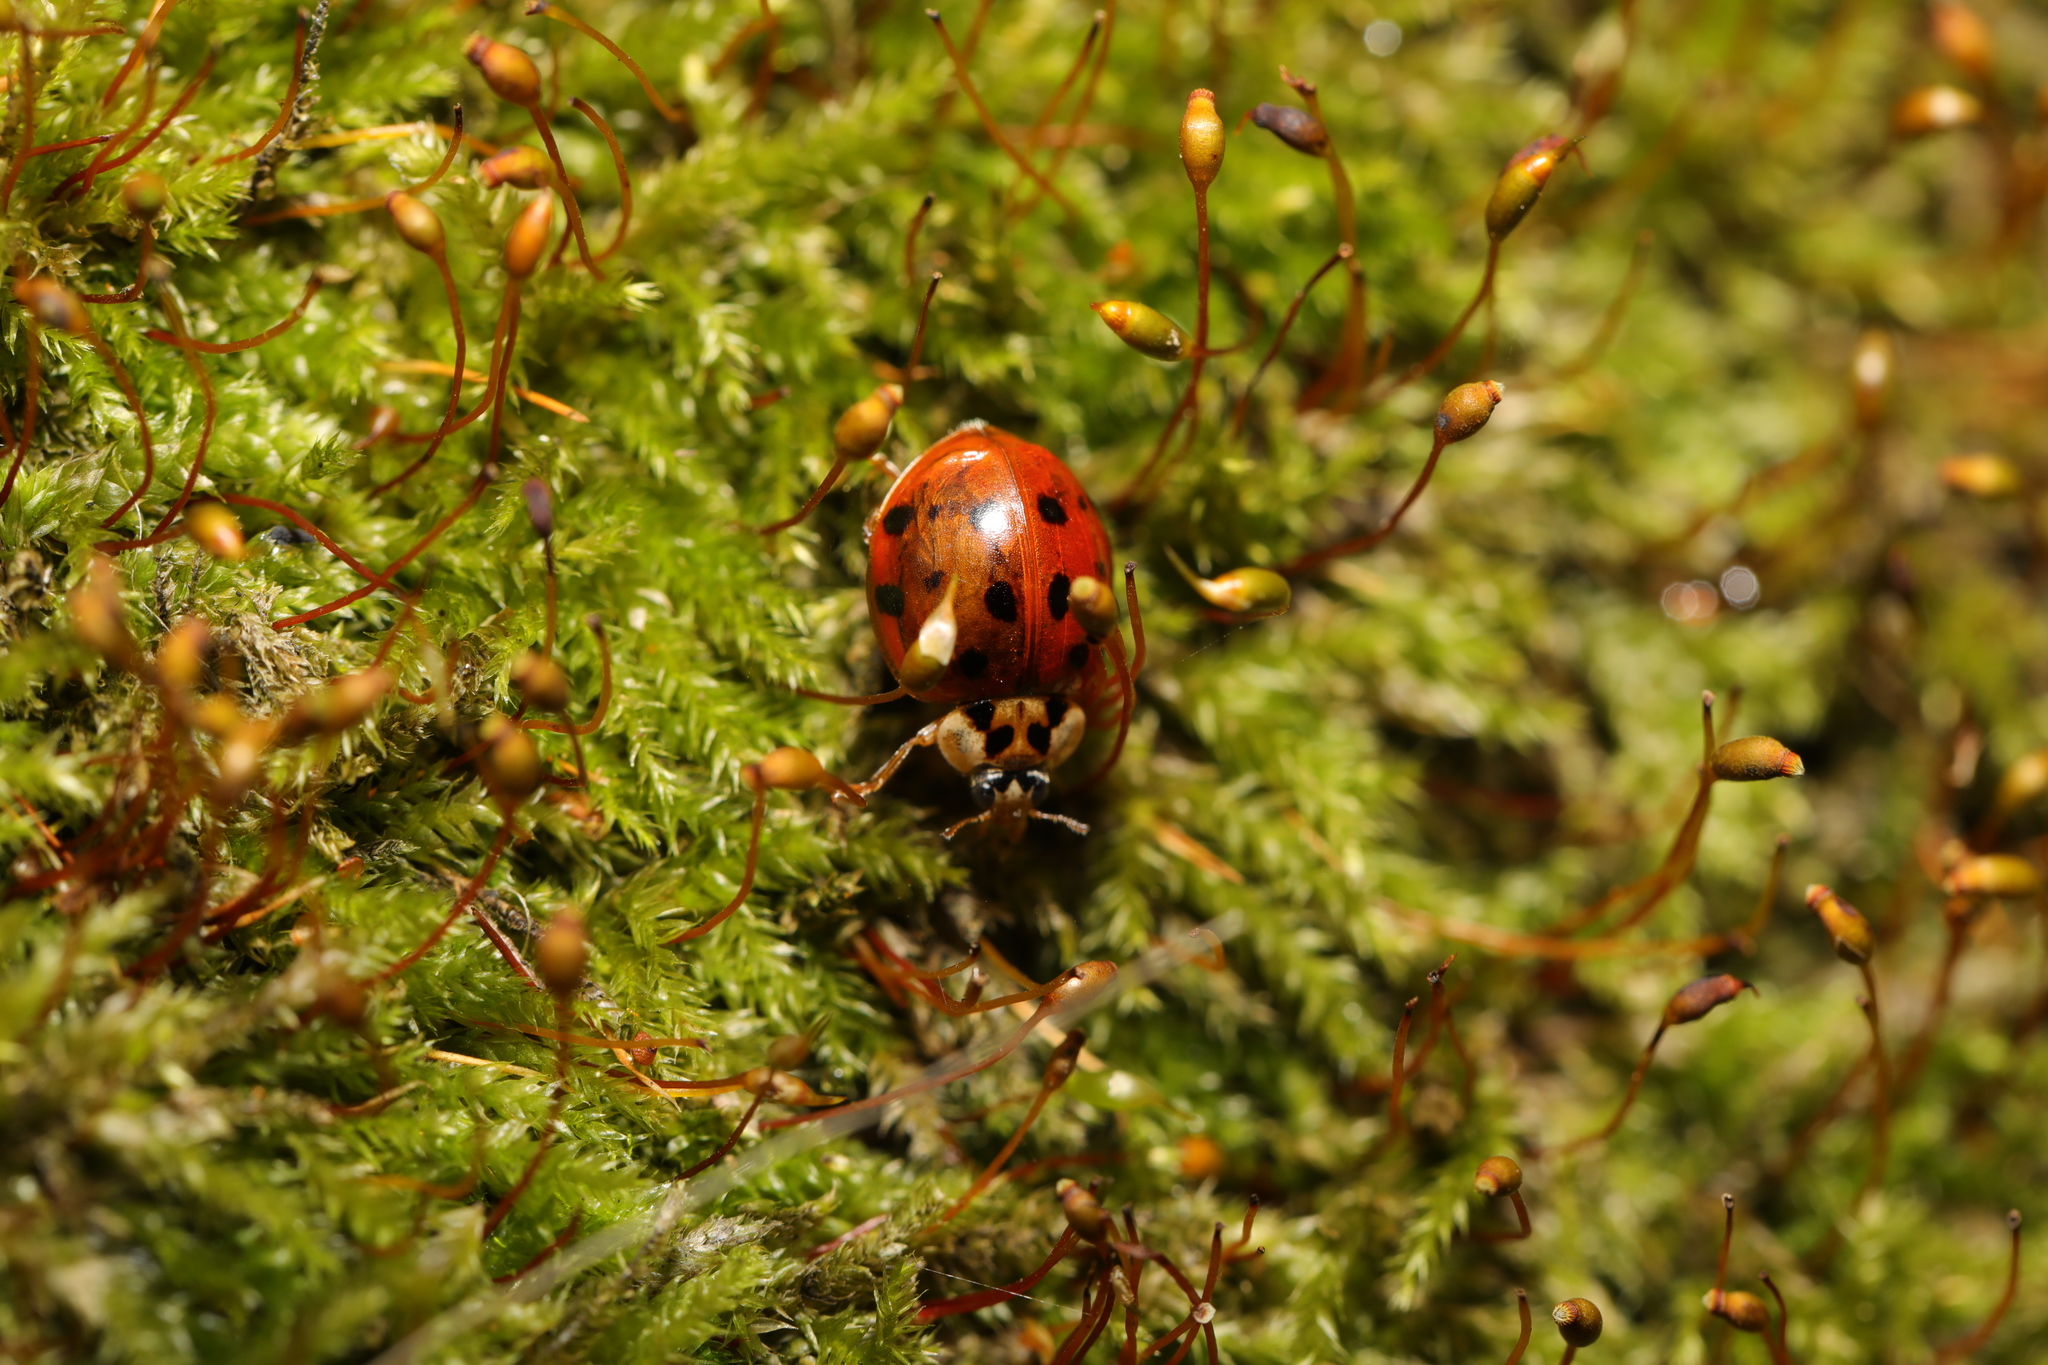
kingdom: Animalia
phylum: Arthropoda
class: Insecta
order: Coleoptera
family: Coccinellidae
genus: Harmonia
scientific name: Harmonia axyridis
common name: Harlequin ladybird
